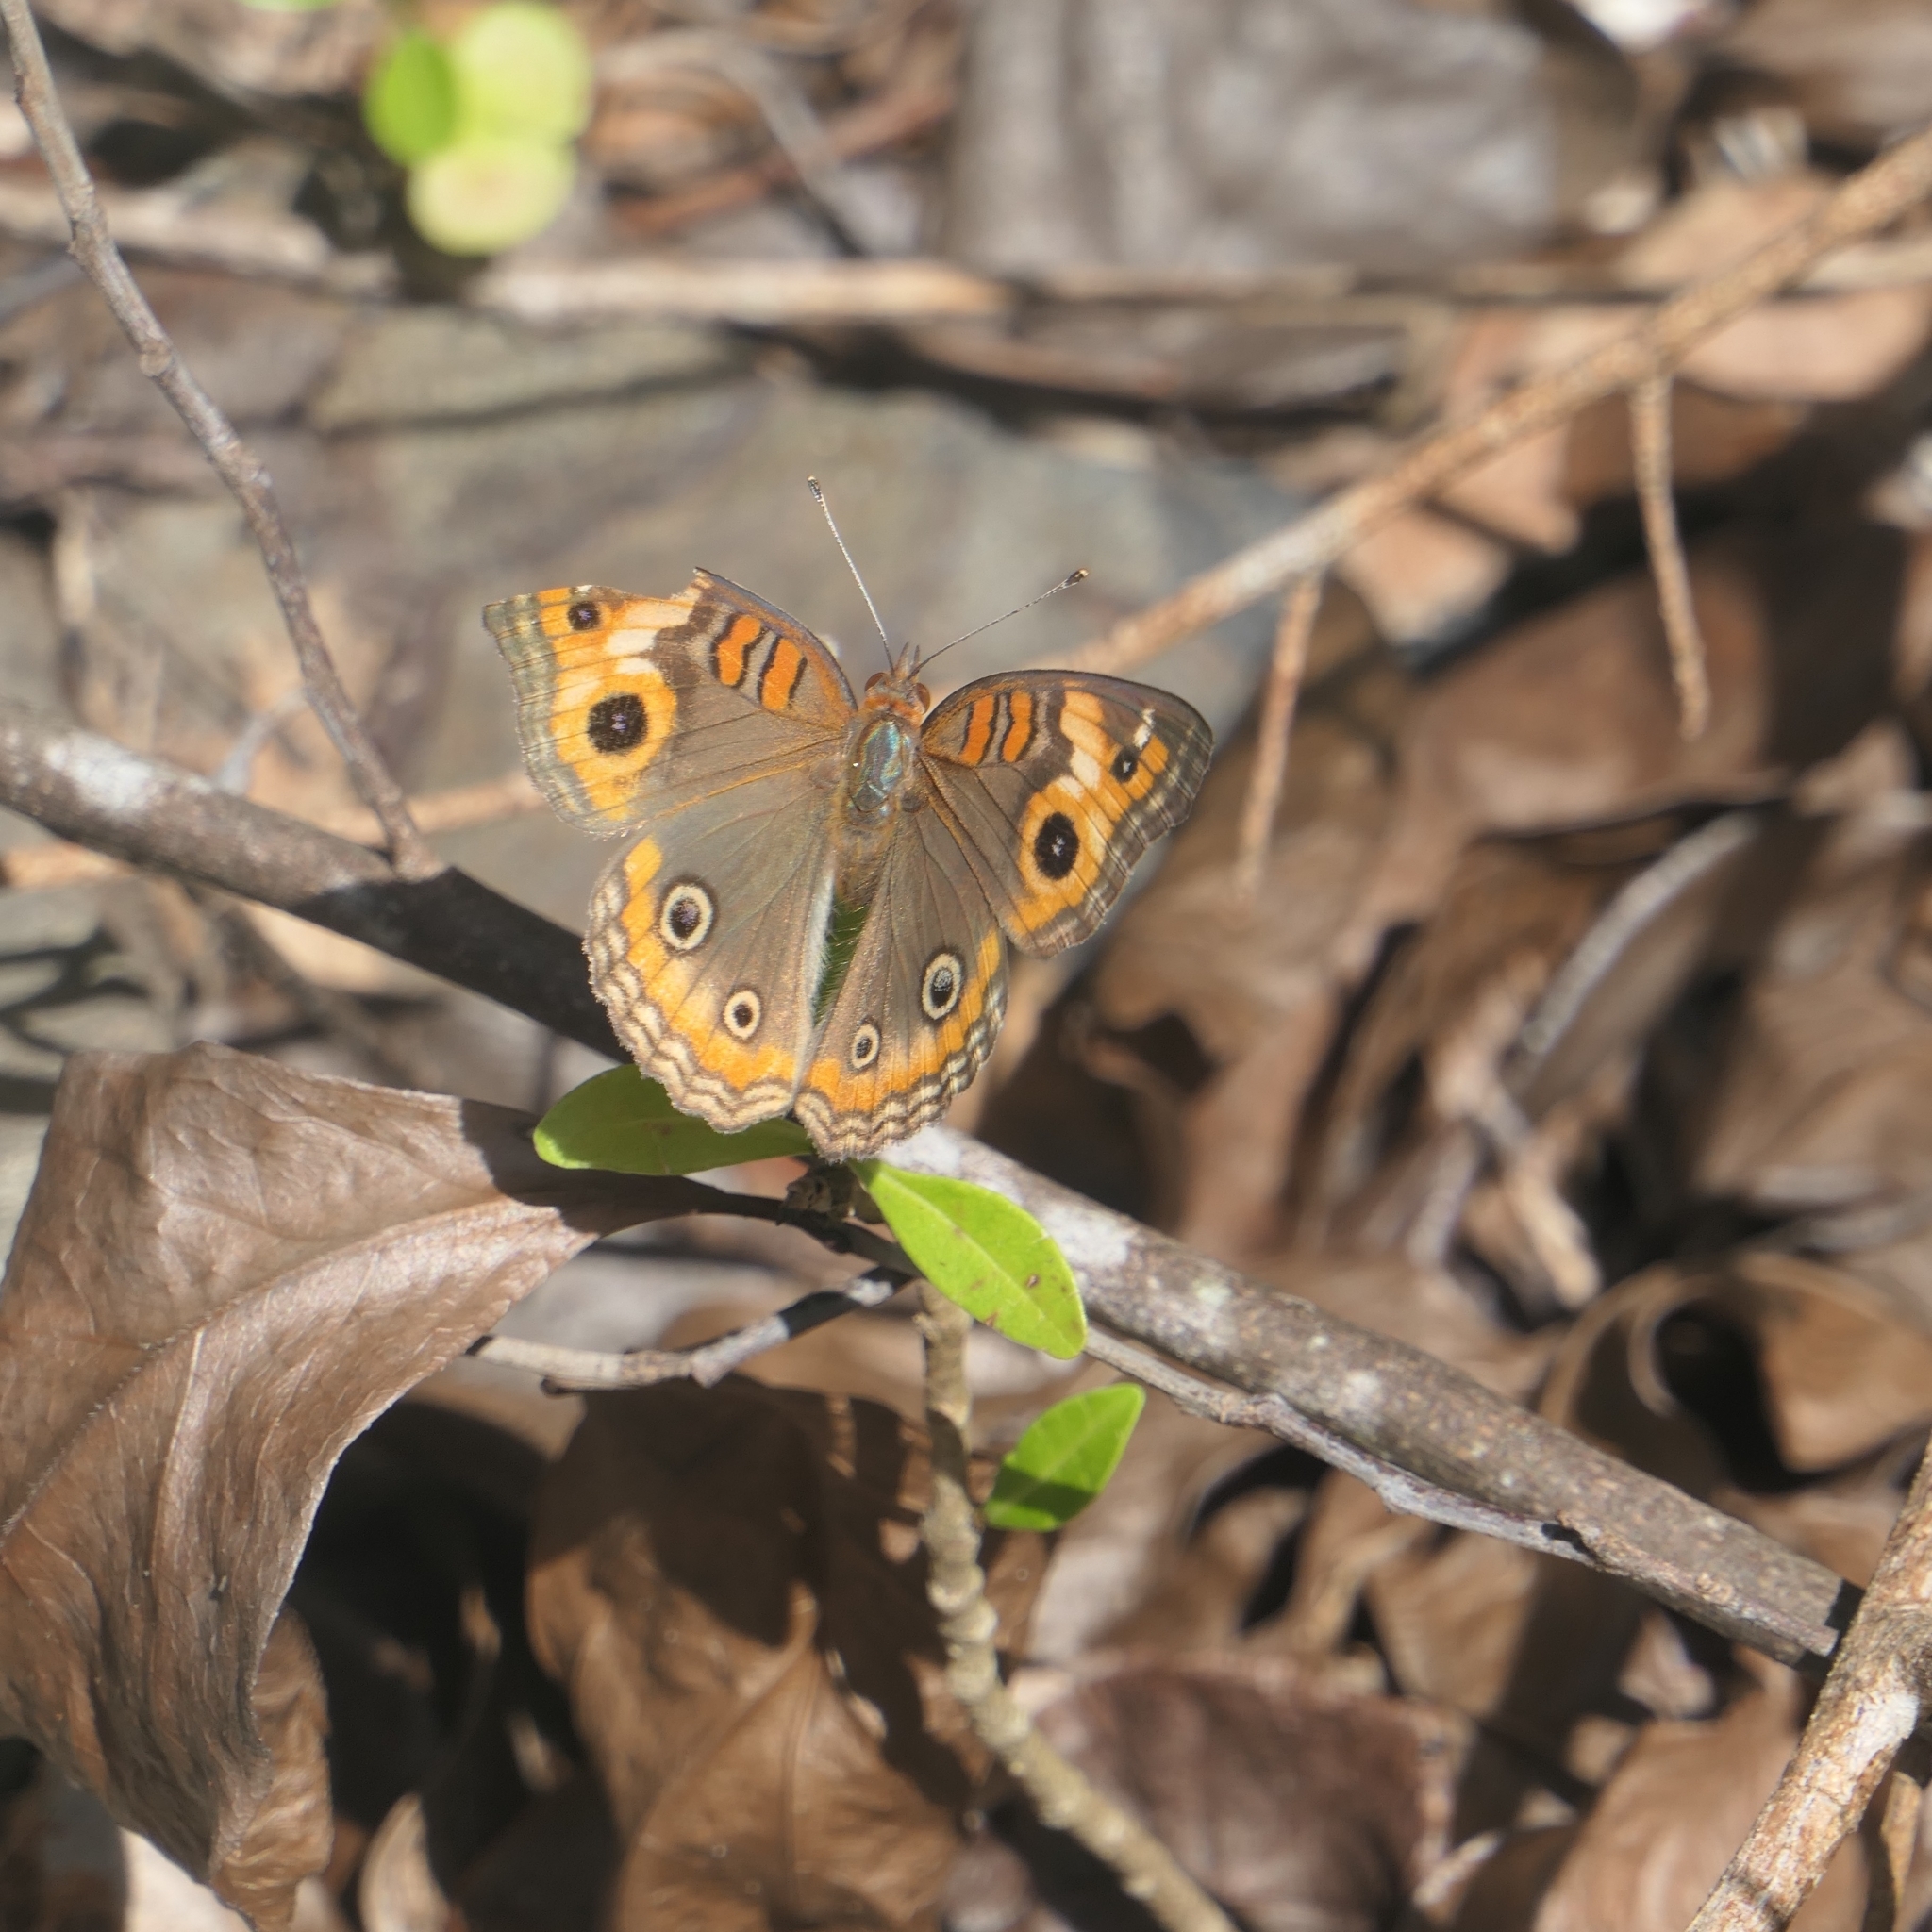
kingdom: Animalia
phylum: Arthropoda
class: Insecta
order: Lepidoptera
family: Nymphalidae
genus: Junonia
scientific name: Junonia lavinia
